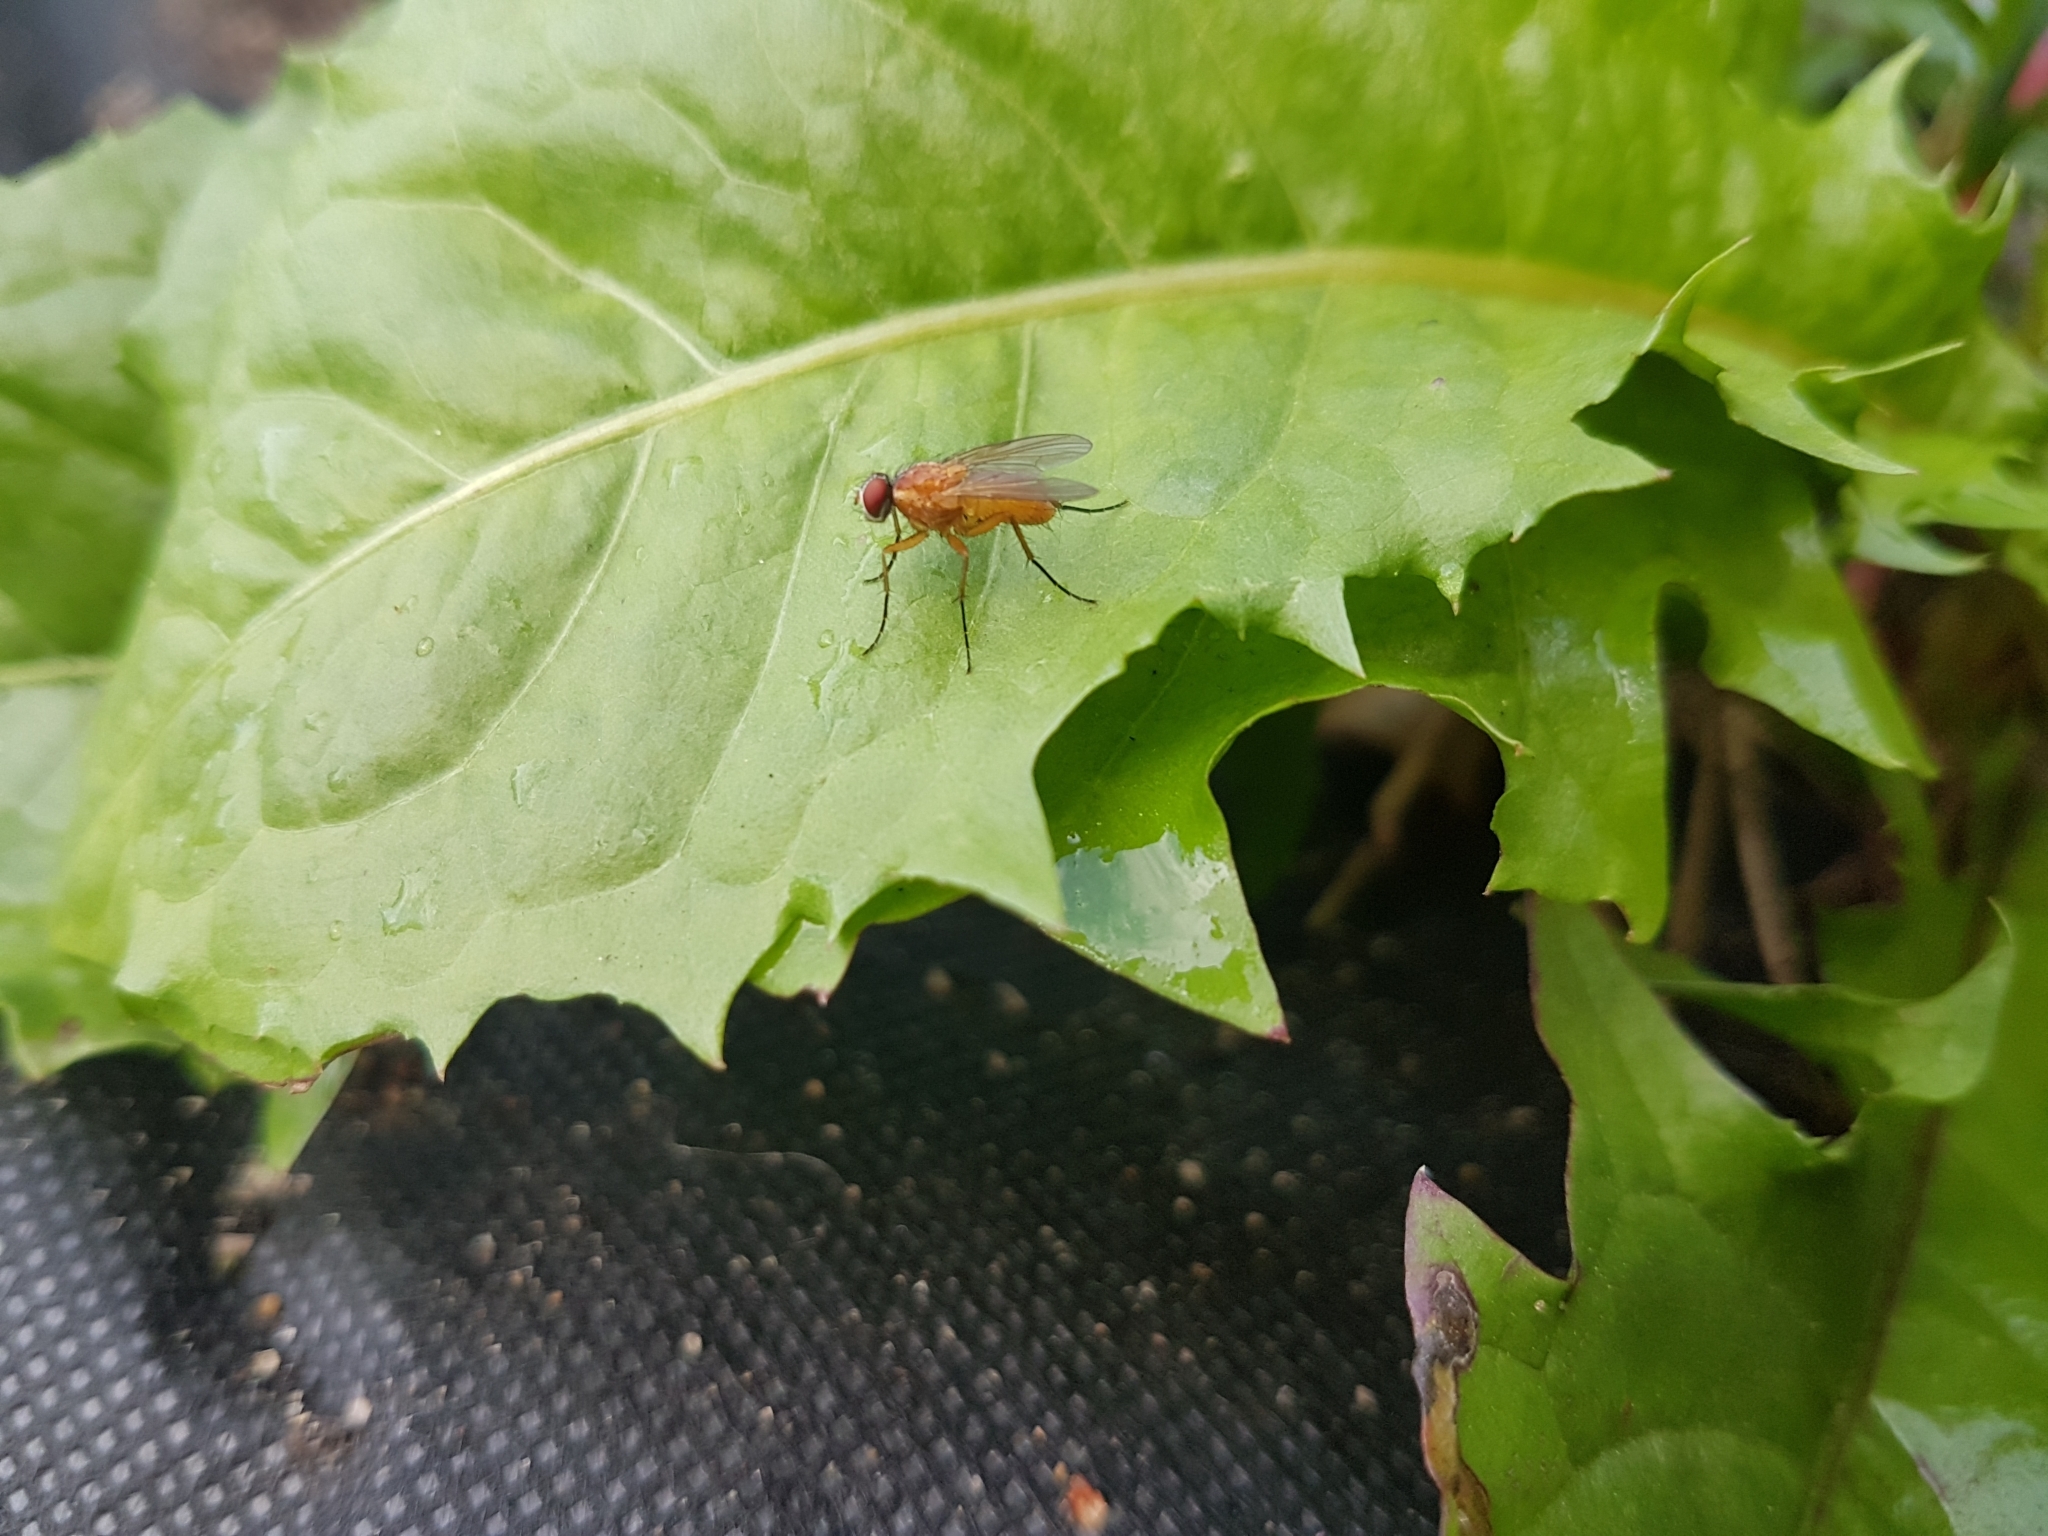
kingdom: Animalia
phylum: Arthropoda
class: Insecta
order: Diptera
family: Muscidae
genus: Achanthiptera
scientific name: Achanthiptera rohrelliformis
